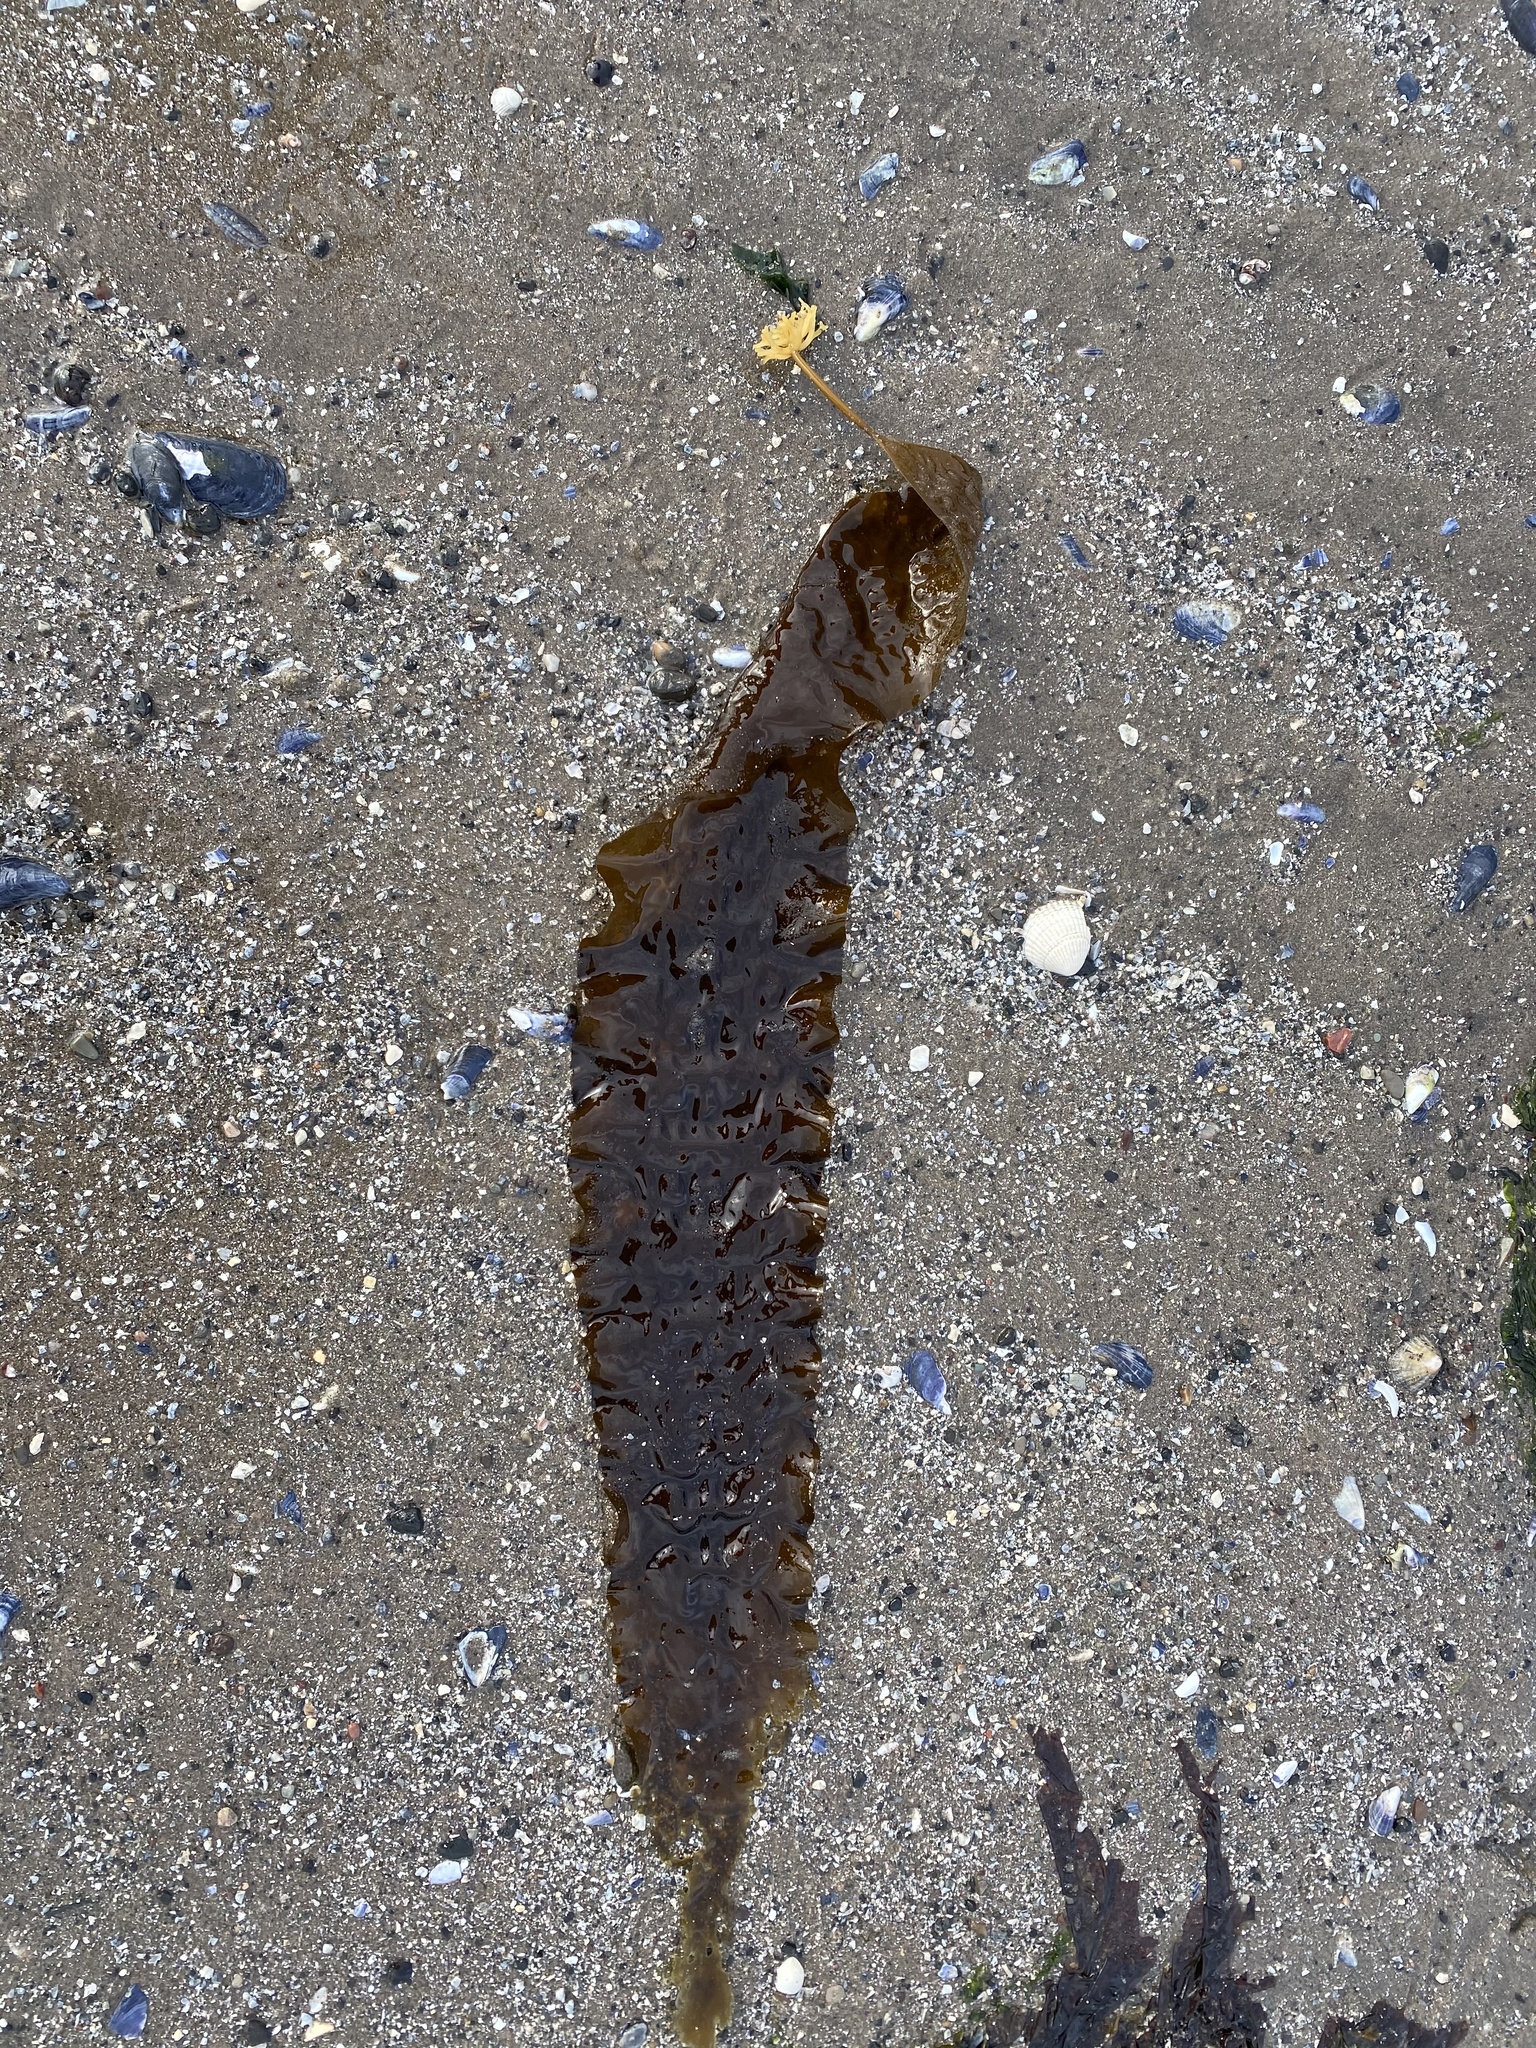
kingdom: Chromista
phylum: Ochrophyta
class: Phaeophyceae
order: Laminariales
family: Laminariaceae
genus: Saccharina
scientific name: Saccharina latissima
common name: Poor man's weather glass
